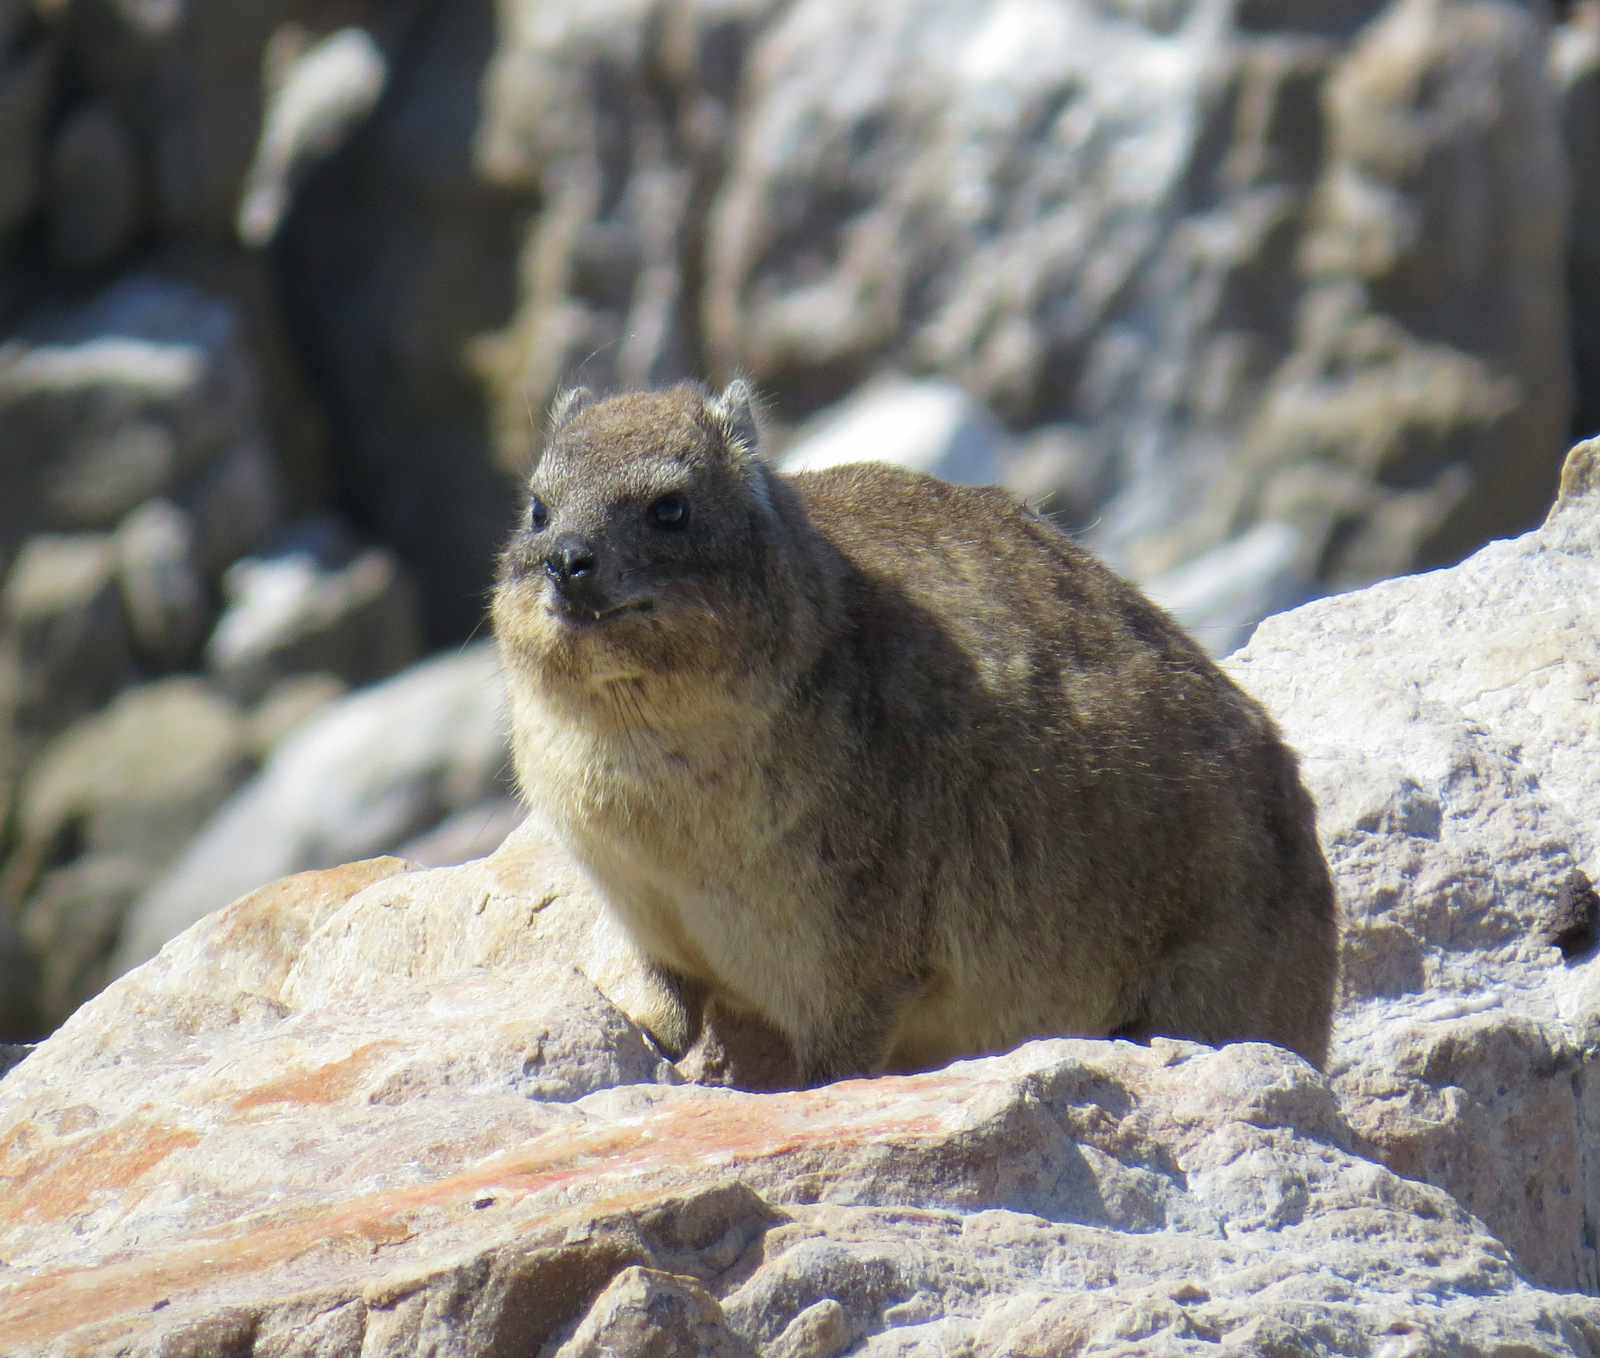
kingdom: Animalia
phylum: Chordata
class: Mammalia
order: Hyracoidea
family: Procaviidae
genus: Procavia
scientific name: Procavia capensis
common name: Rock hyrax
